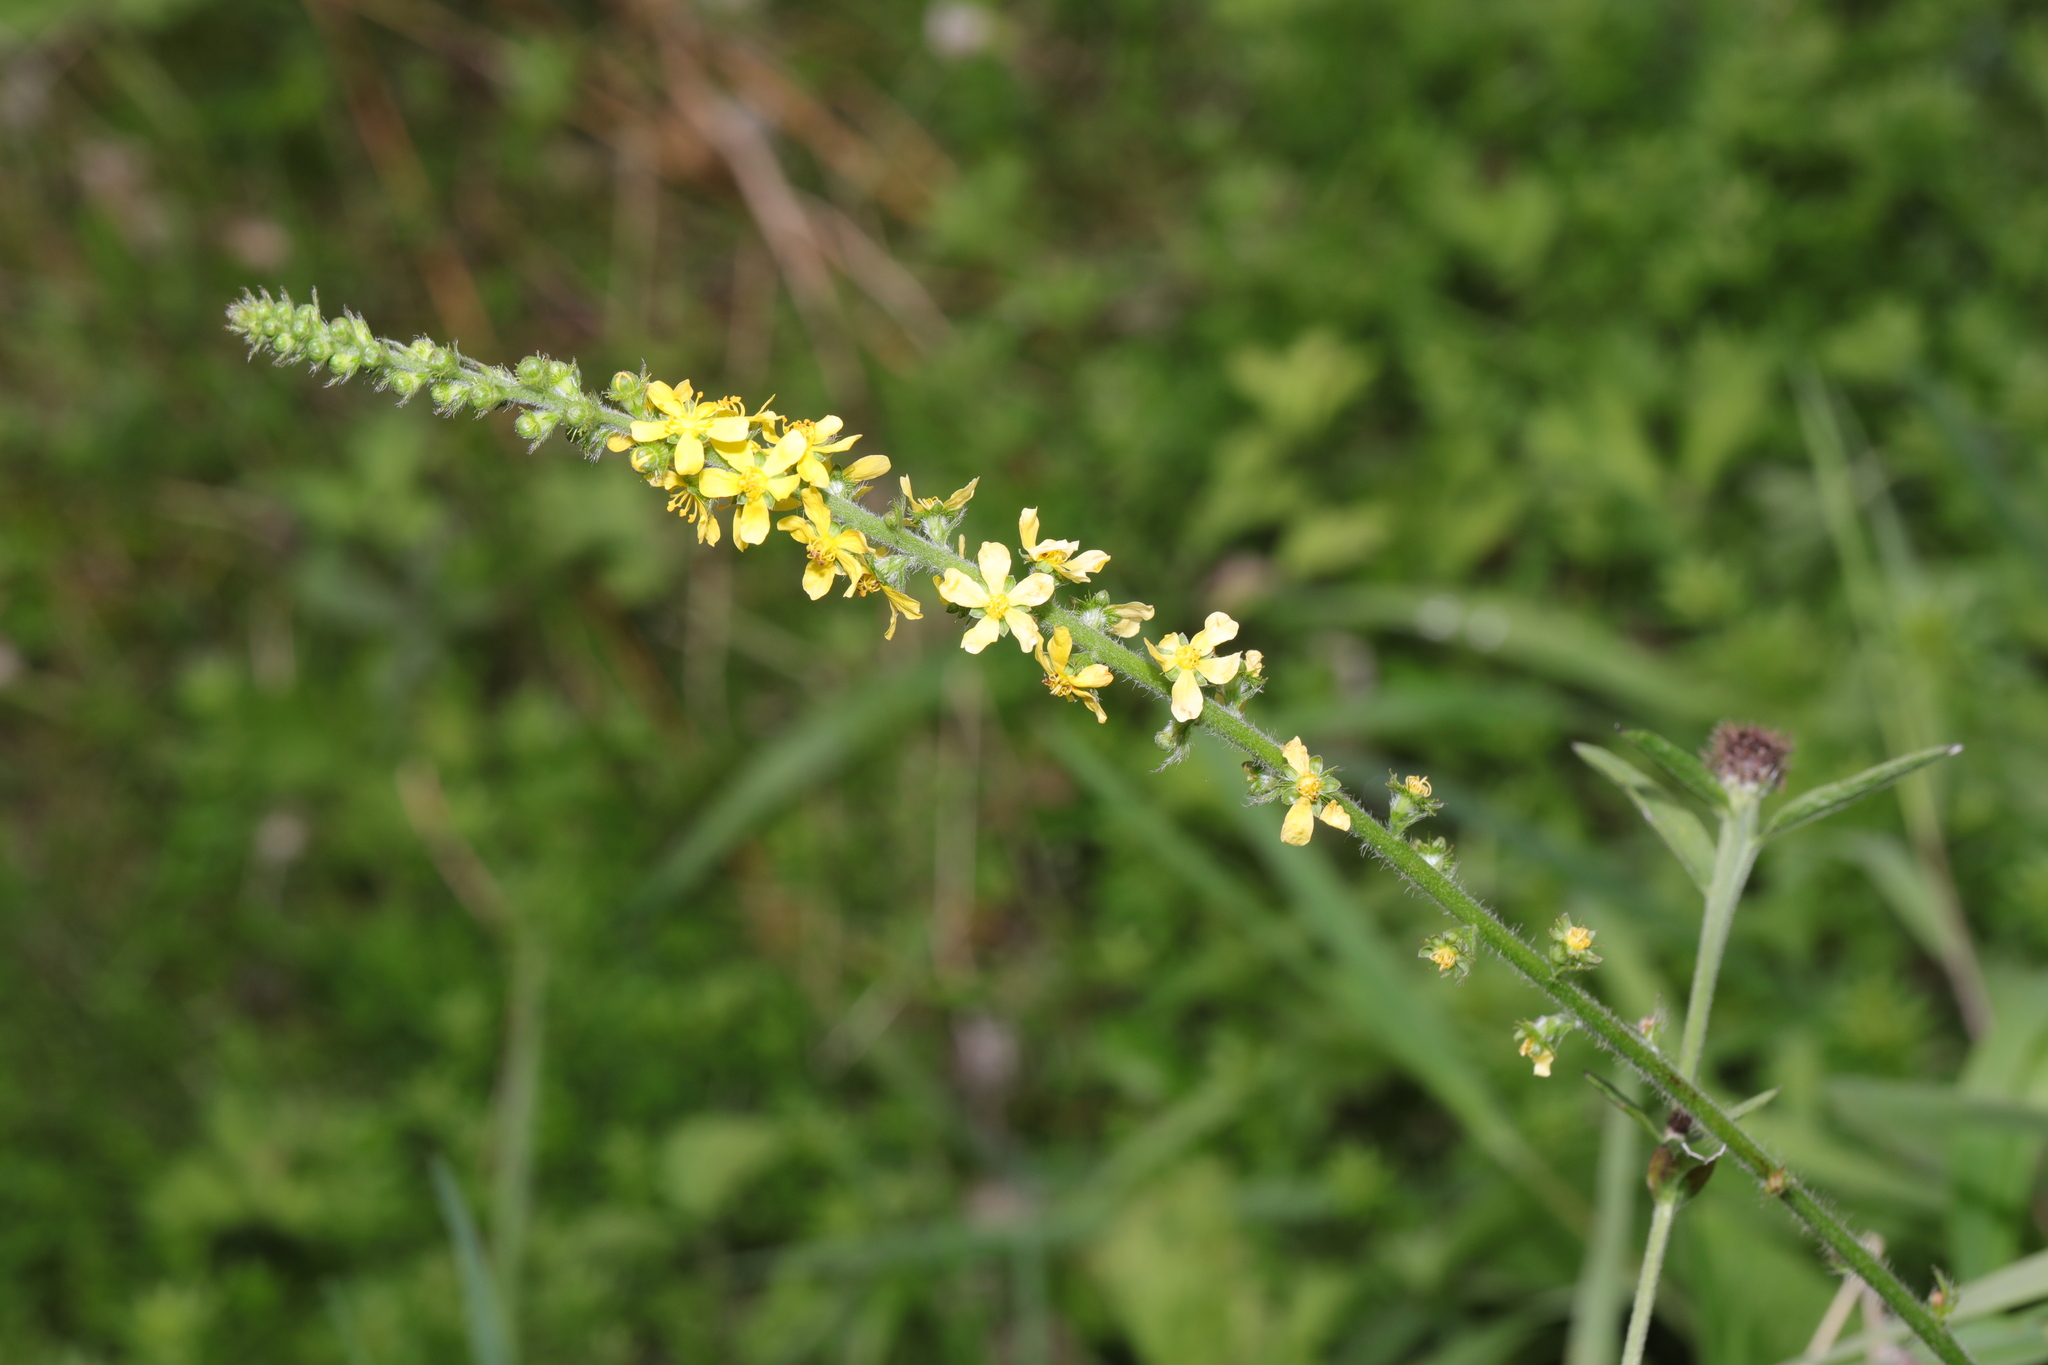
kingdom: Plantae
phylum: Tracheophyta
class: Magnoliopsida
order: Rosales
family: Rosaceae
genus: Agrimonia
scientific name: Agrimonia eupatoria
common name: Agrimony
